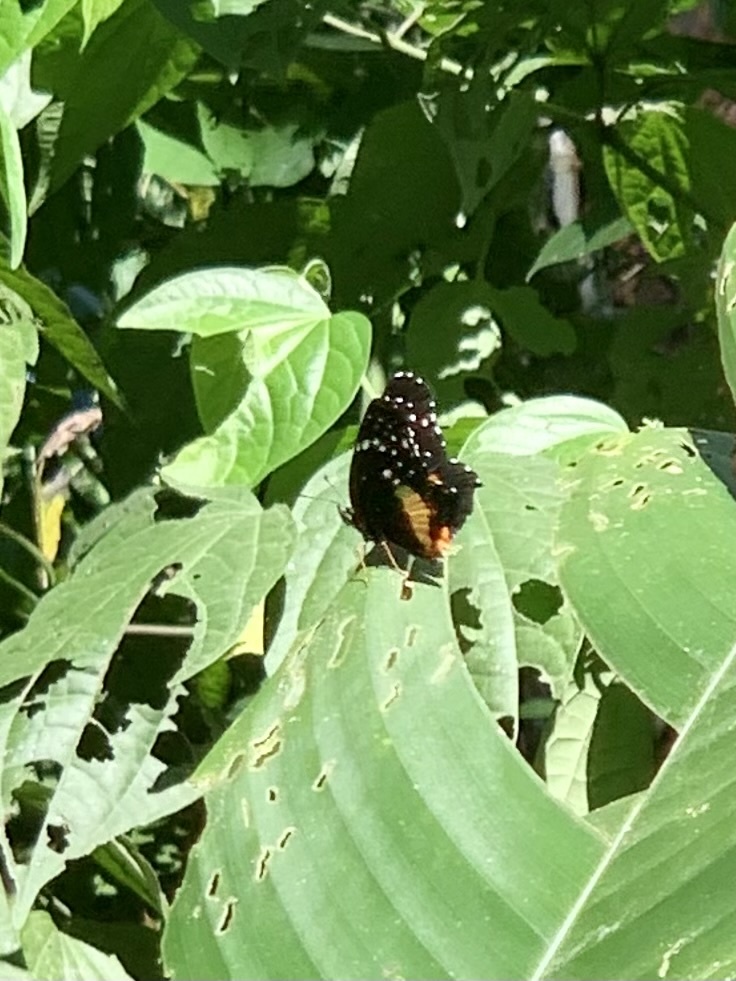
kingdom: Animalia
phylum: Arthropoda
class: Insecta
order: Lepidoptera
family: Nymphalidae
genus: Chlosyne
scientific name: Chlosyne lacinia
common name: Bordered patch
